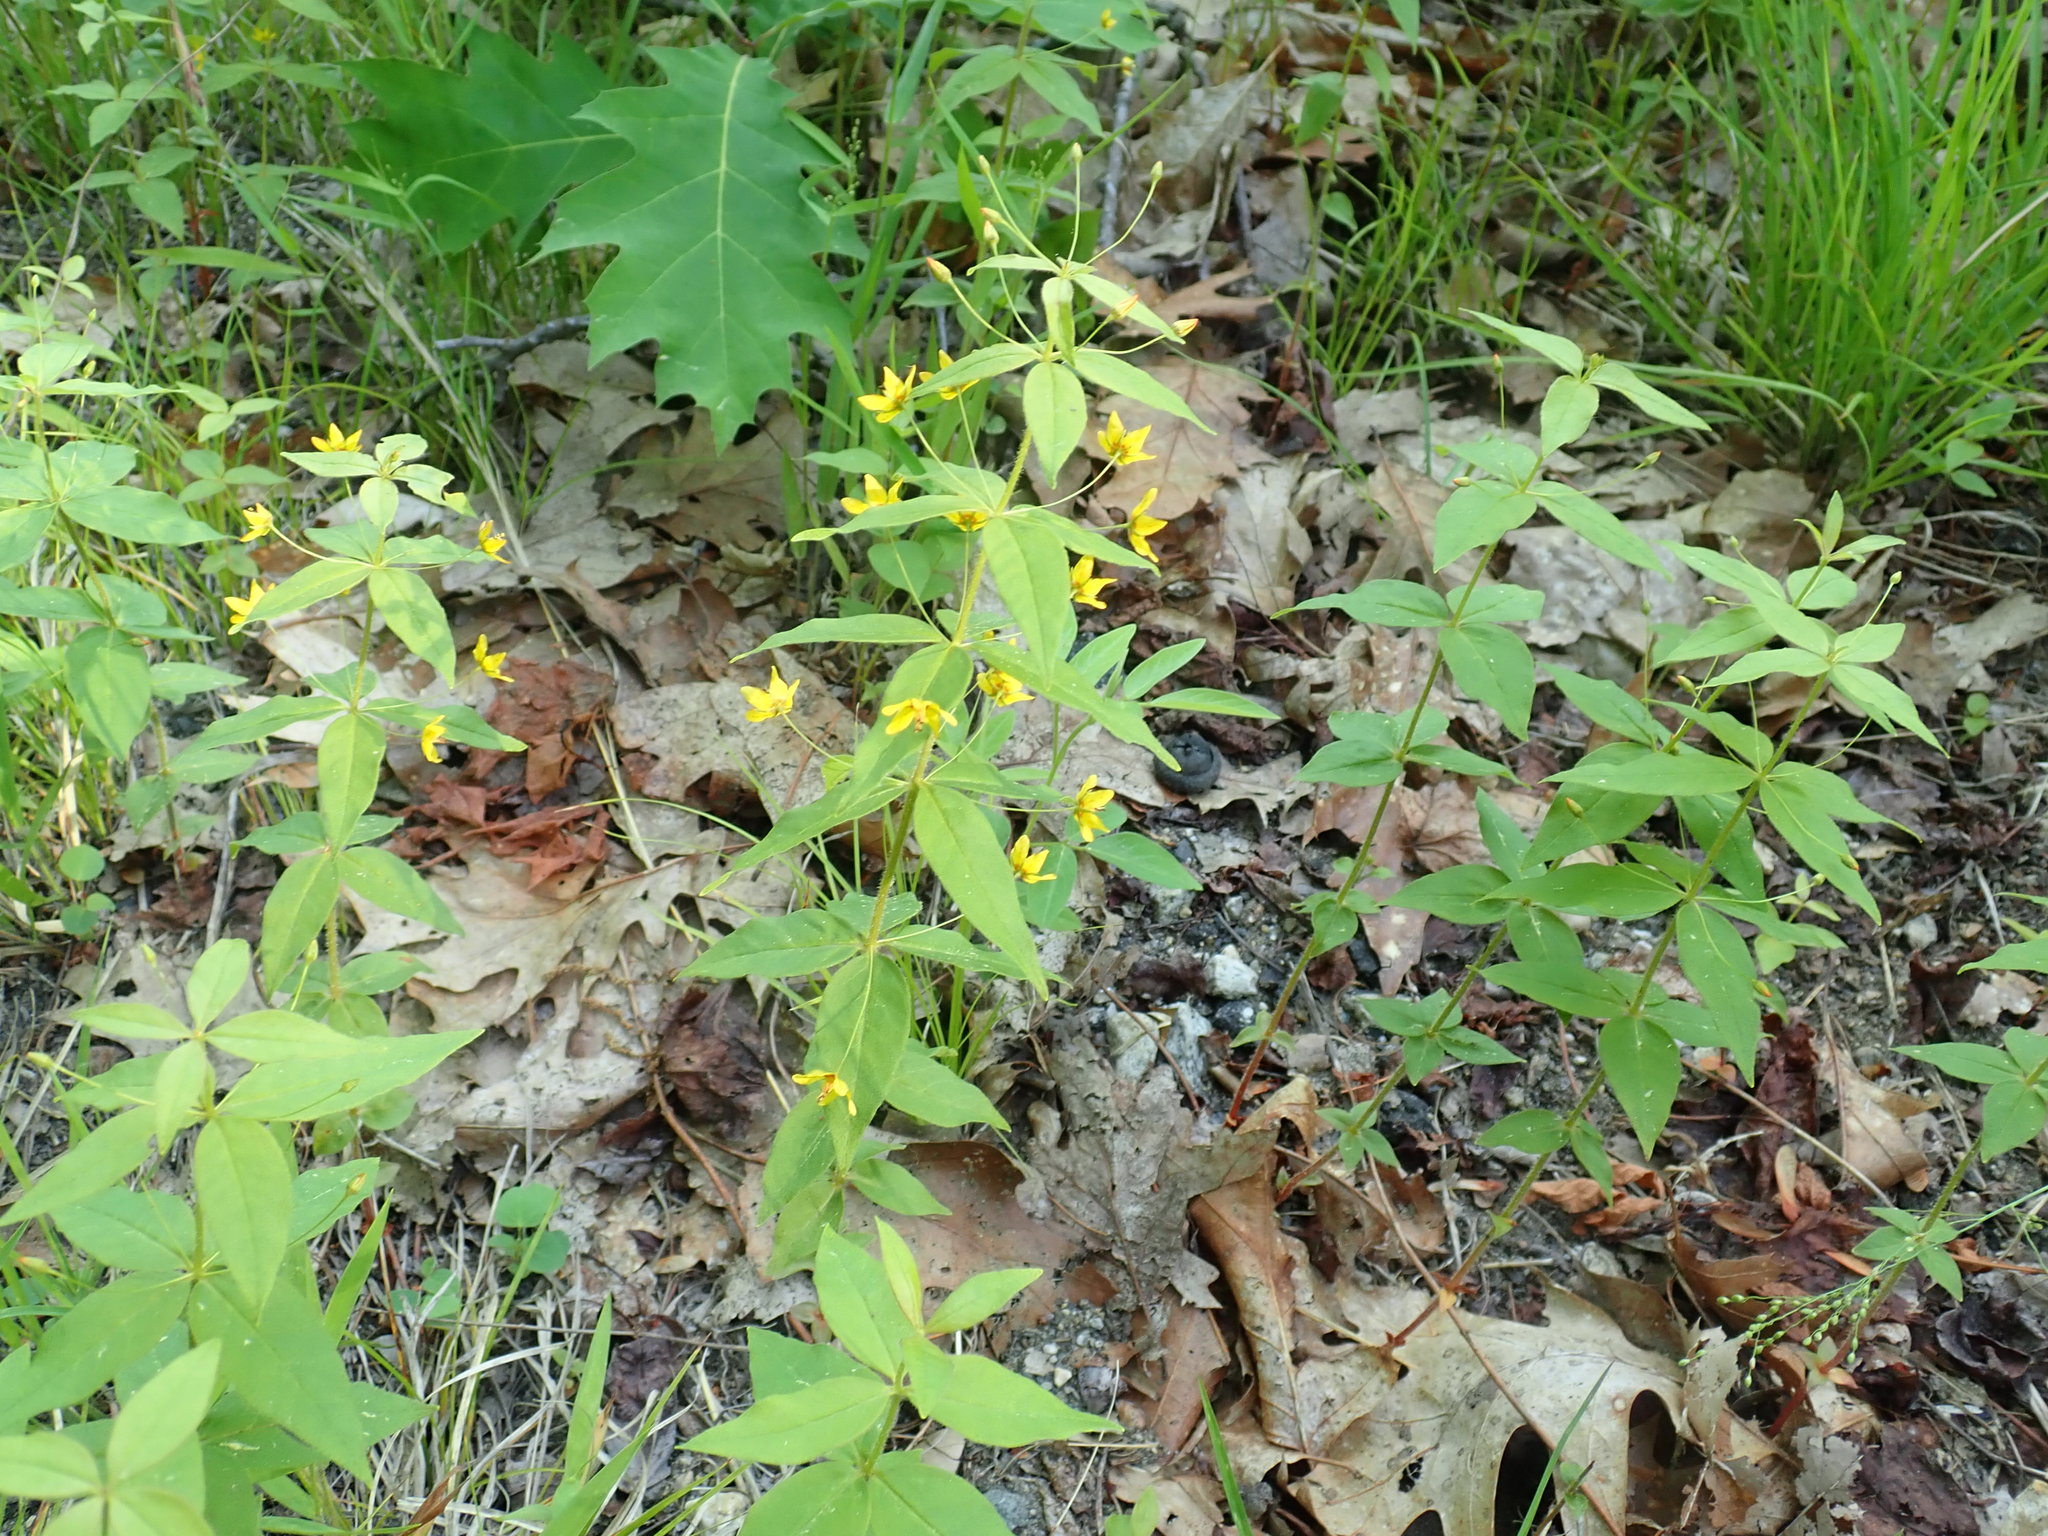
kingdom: Plantae
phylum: Tracheophyta
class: Magnoliopsida
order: Ericales
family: Primulaceae
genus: Lysimachia
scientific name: Lysimachia quadrifolia
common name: Whorled loosestrife
